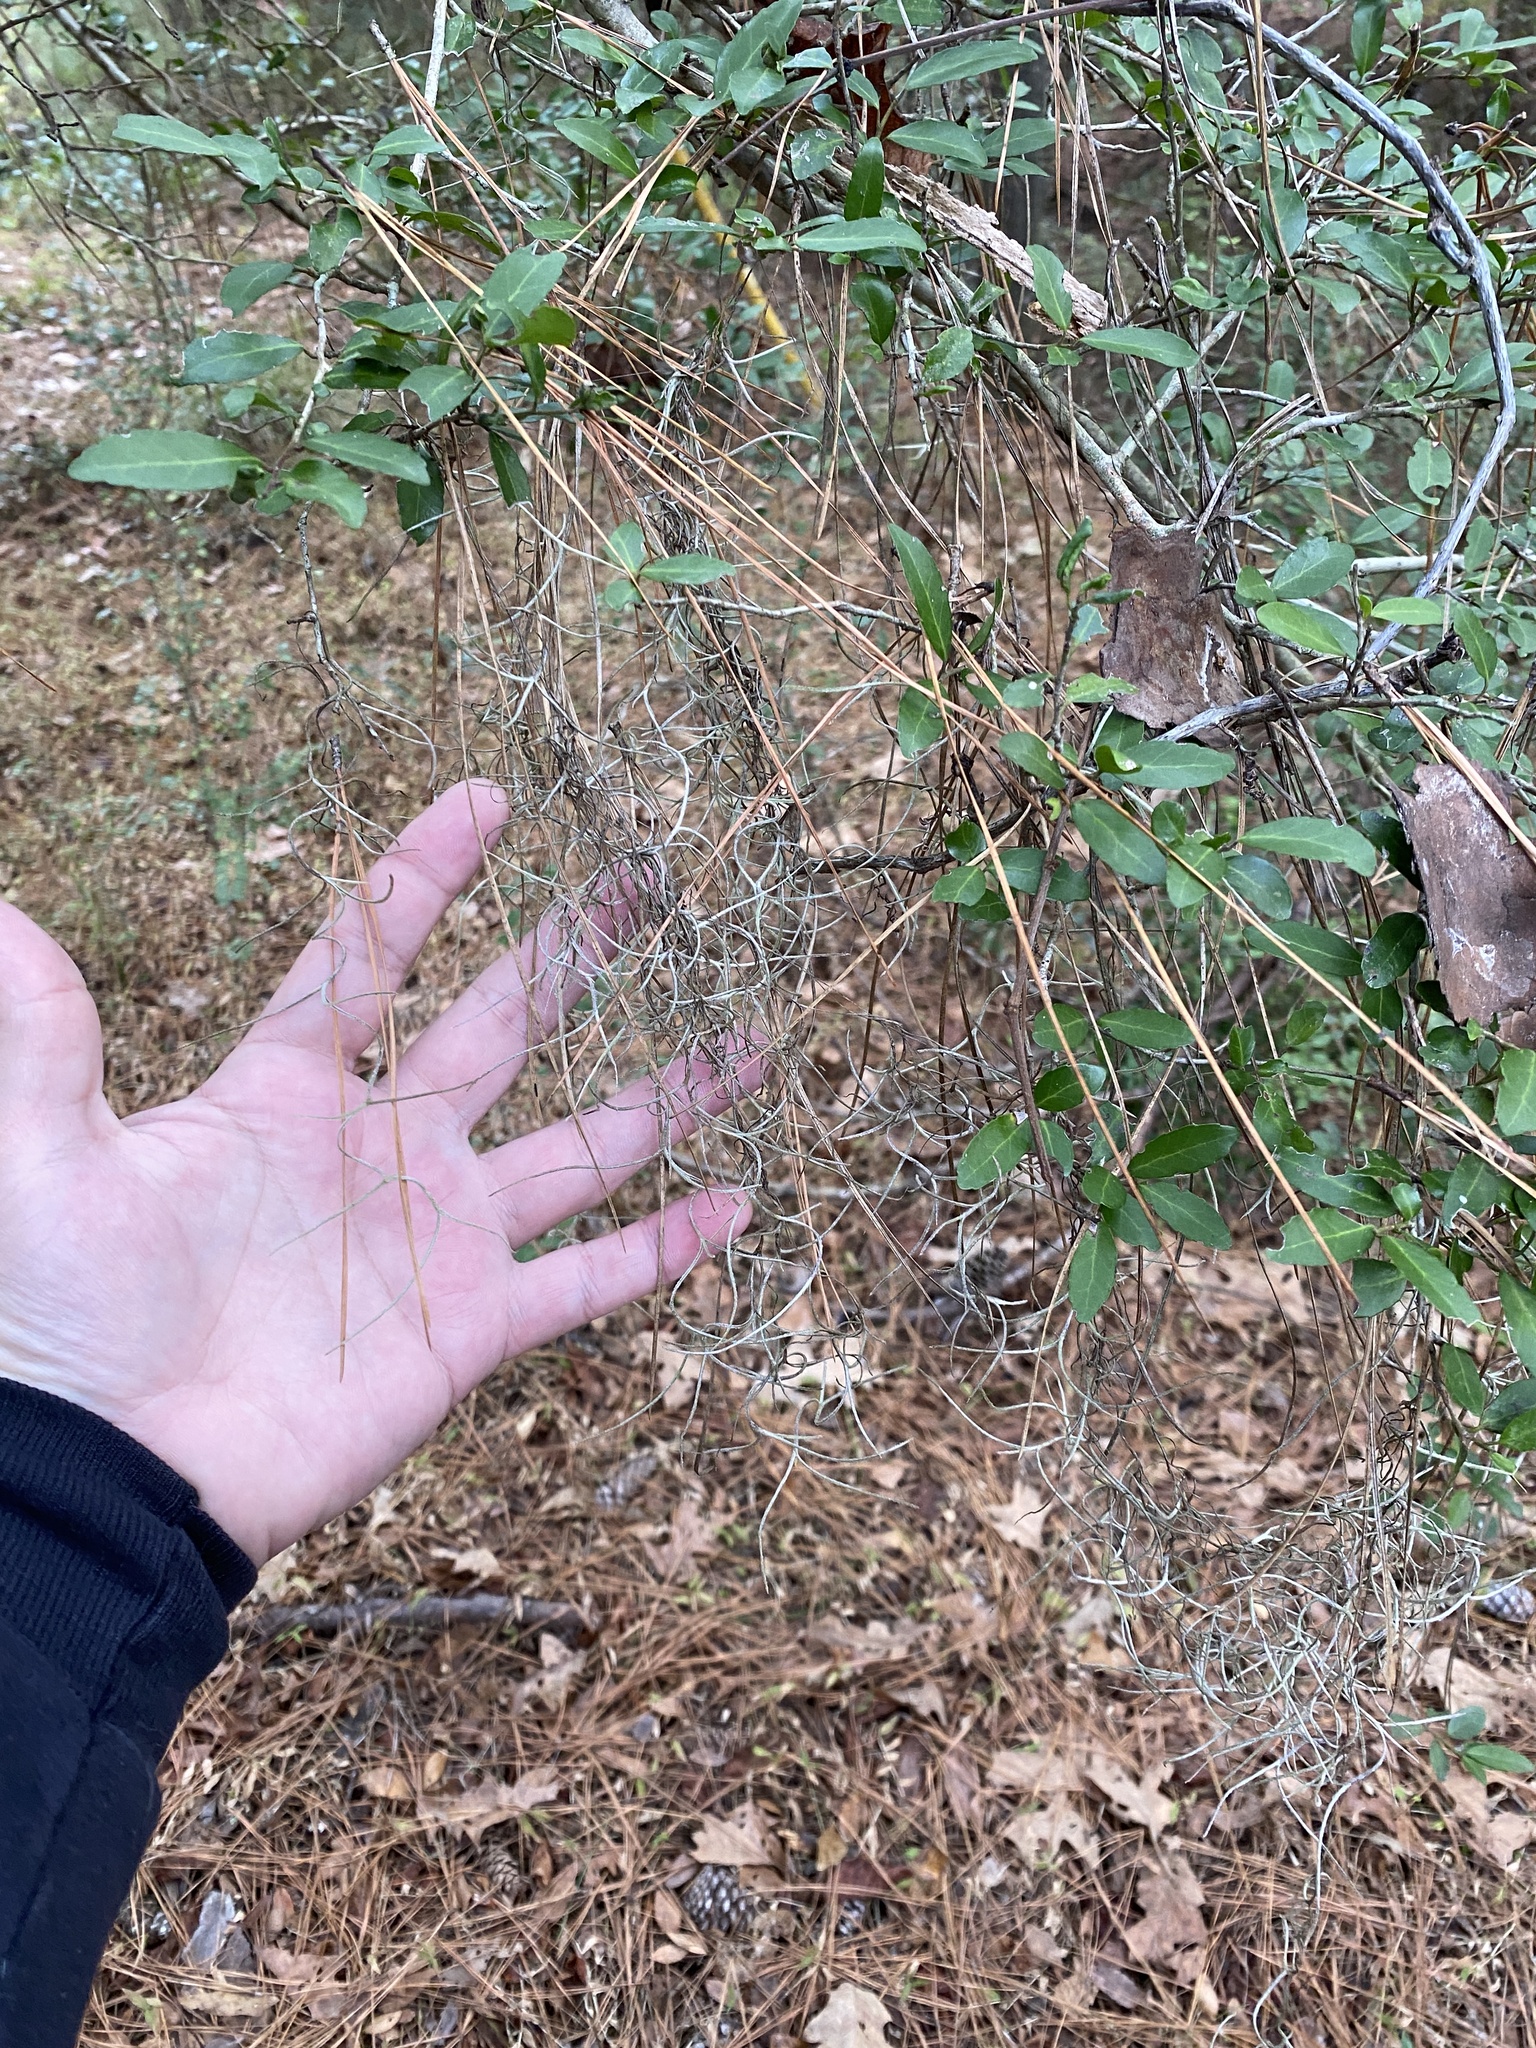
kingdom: Plantae
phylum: Tracheophyta
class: Liliopsida
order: Poales
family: Bromeliaceae
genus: Tillandsia
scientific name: Tillandsia usneoides
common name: Spanish moss
